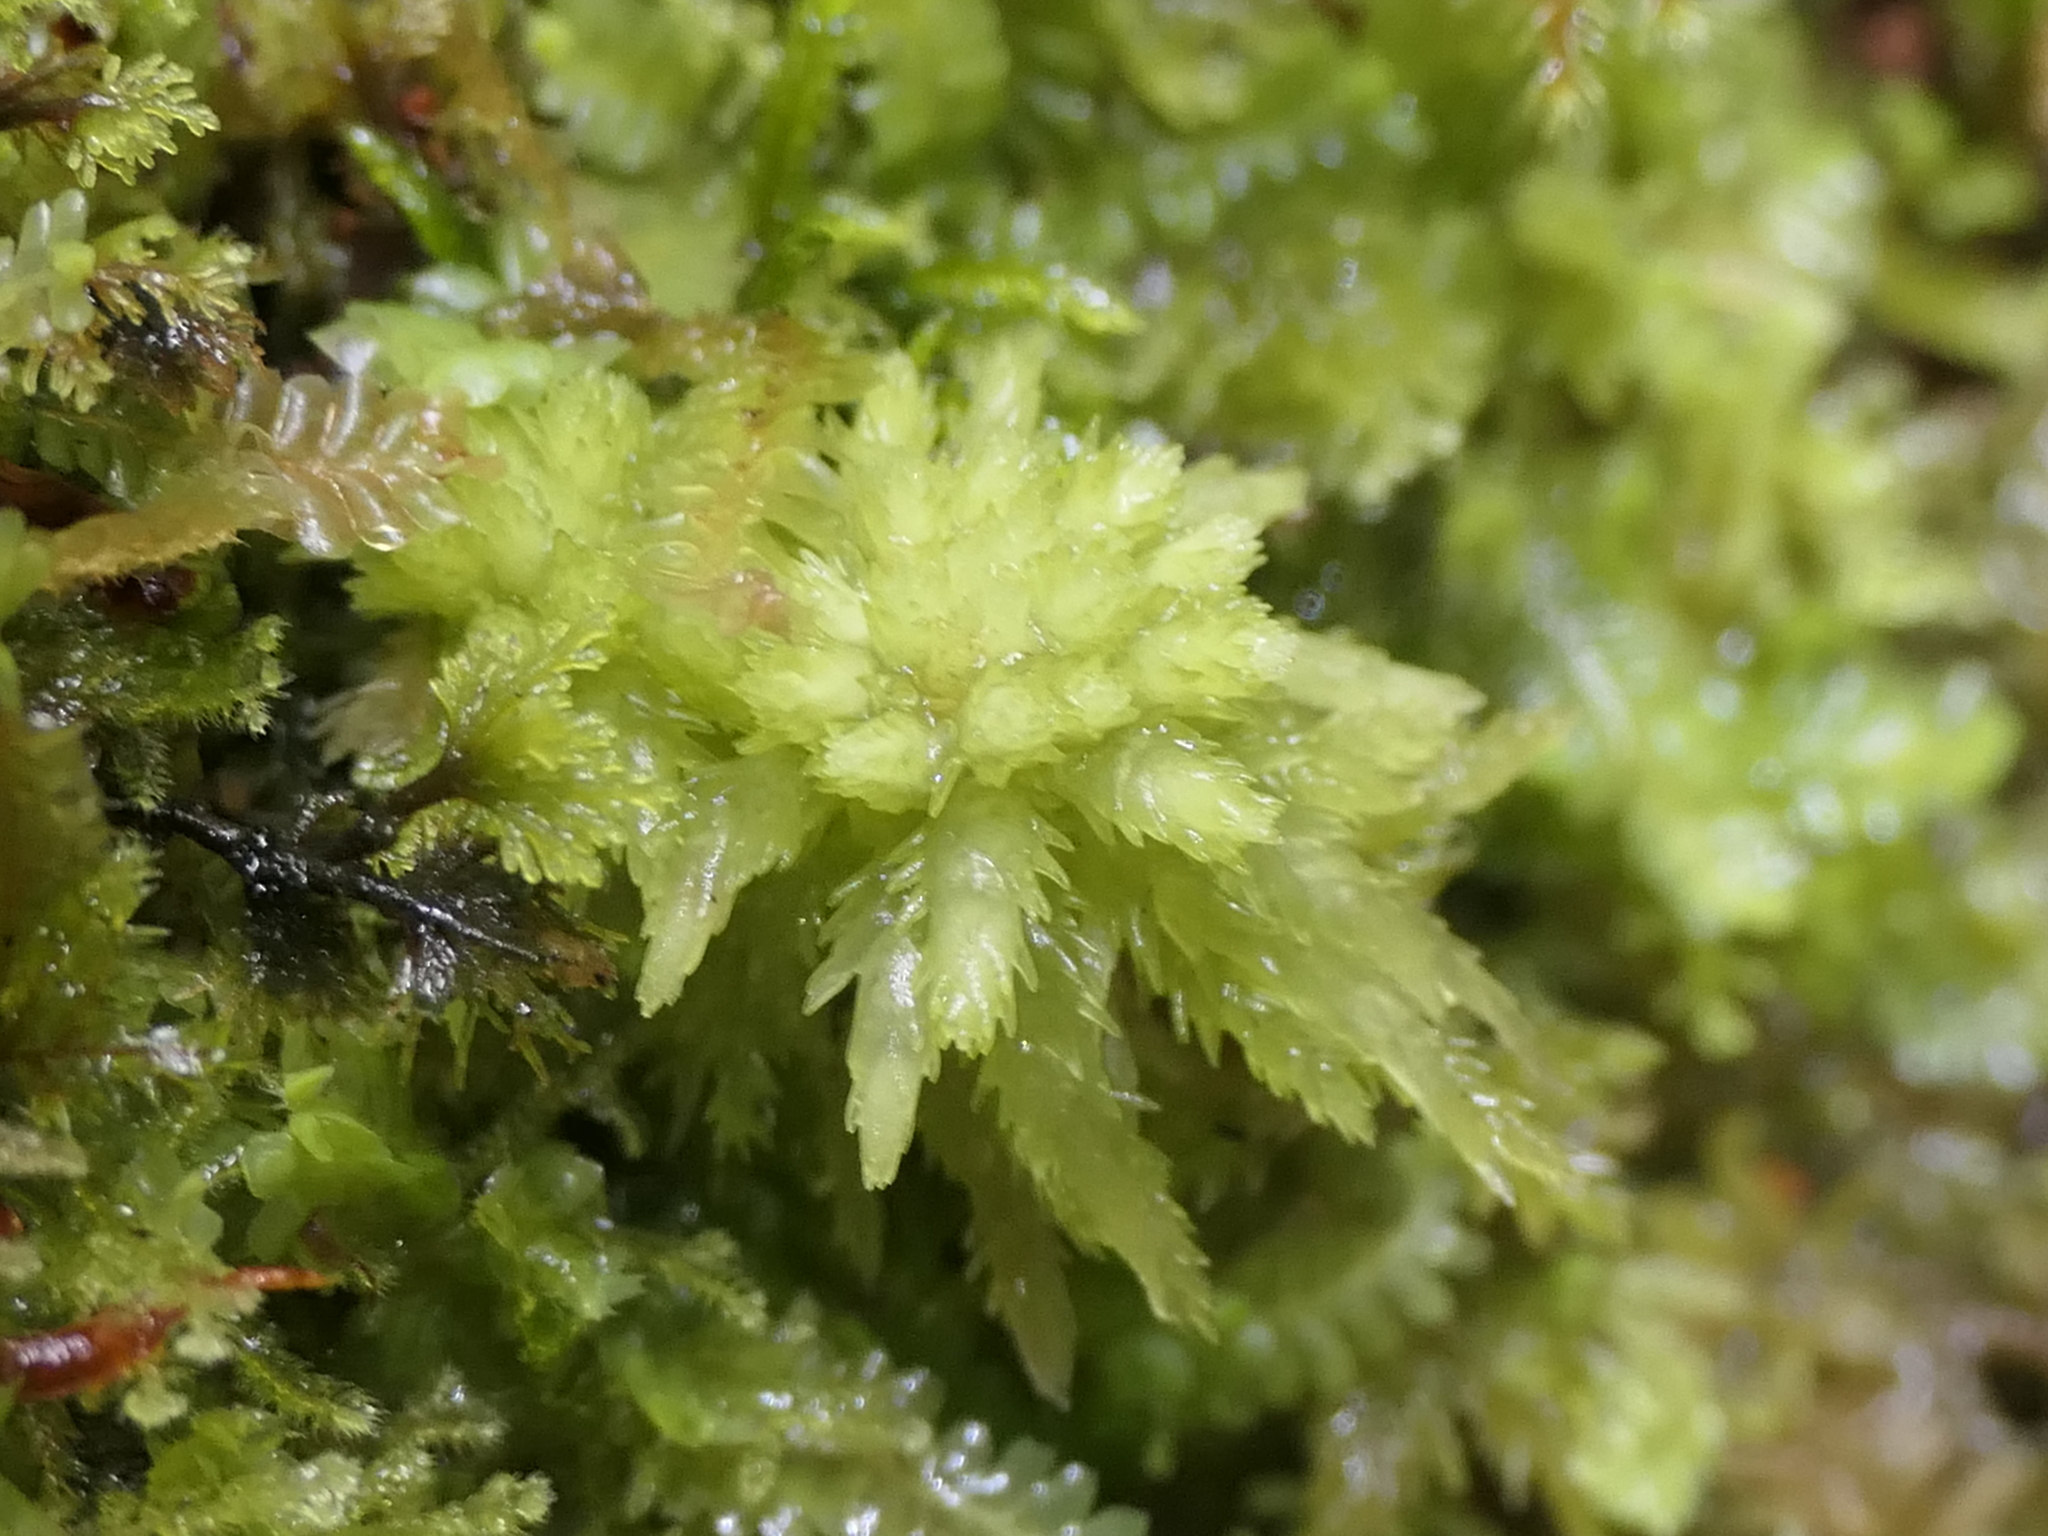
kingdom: Plantae
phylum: Bryophyta
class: Sphagnopsida
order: Sphagnales
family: Sphagnaceae
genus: Sphagnum
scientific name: Sphagnum cristatum
